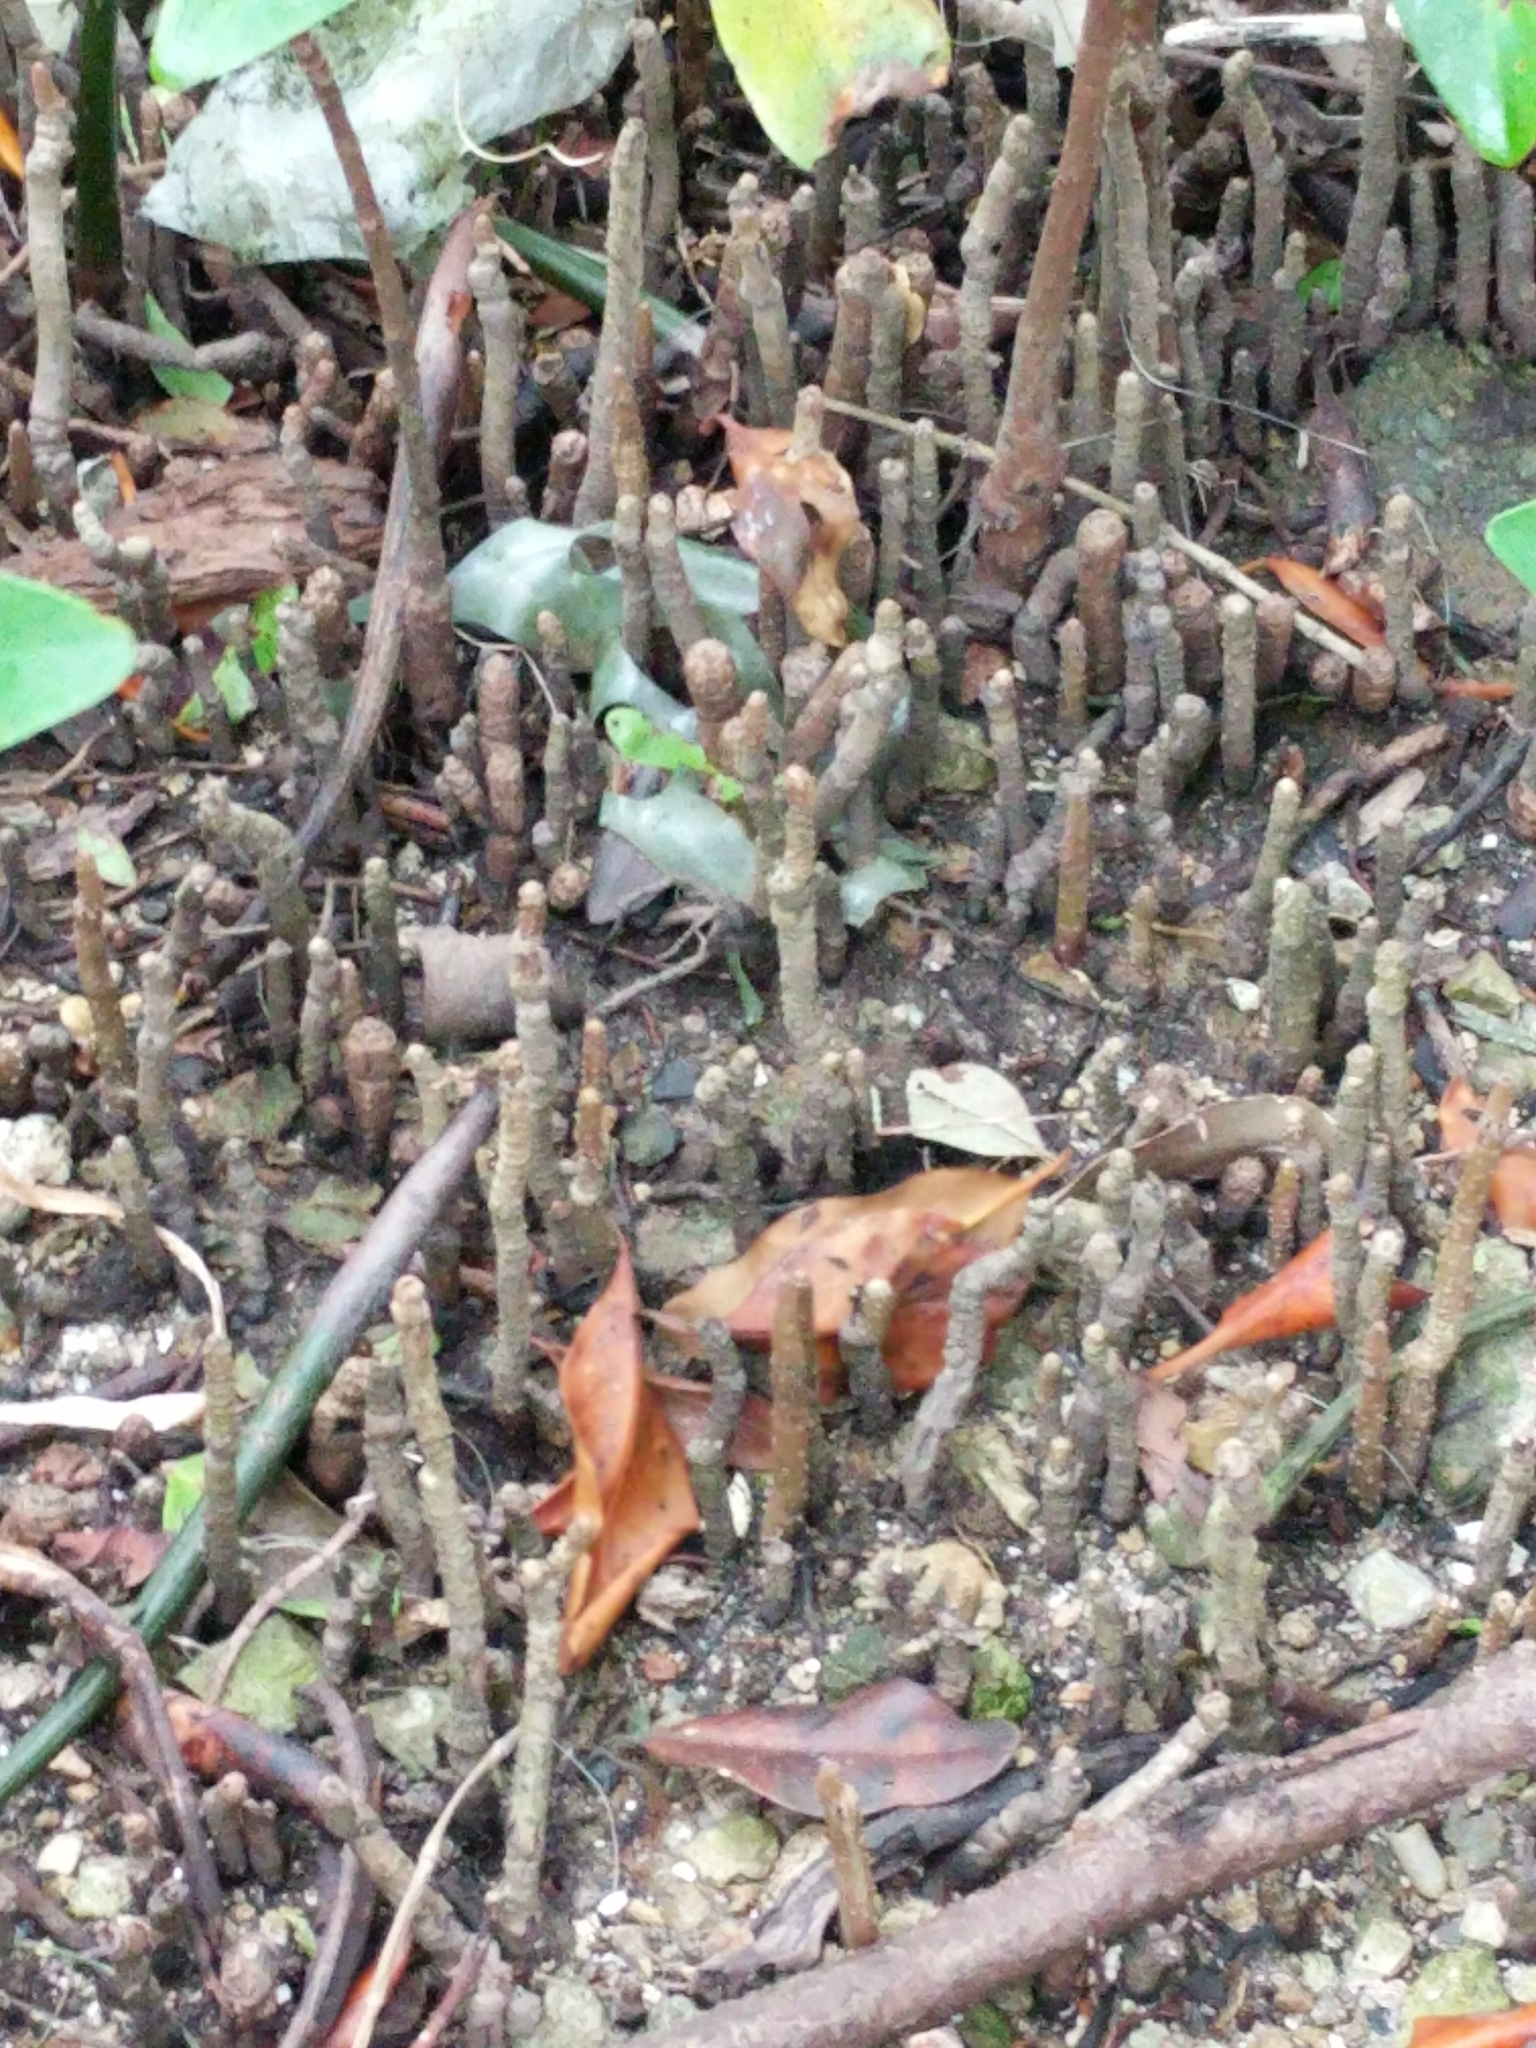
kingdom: Plantae
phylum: Tracheophyta
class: Magnoliopsida
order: Lamiales
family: Acanthaceae
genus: Avicennia
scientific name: Avicennia germinans
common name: Black mangrove
